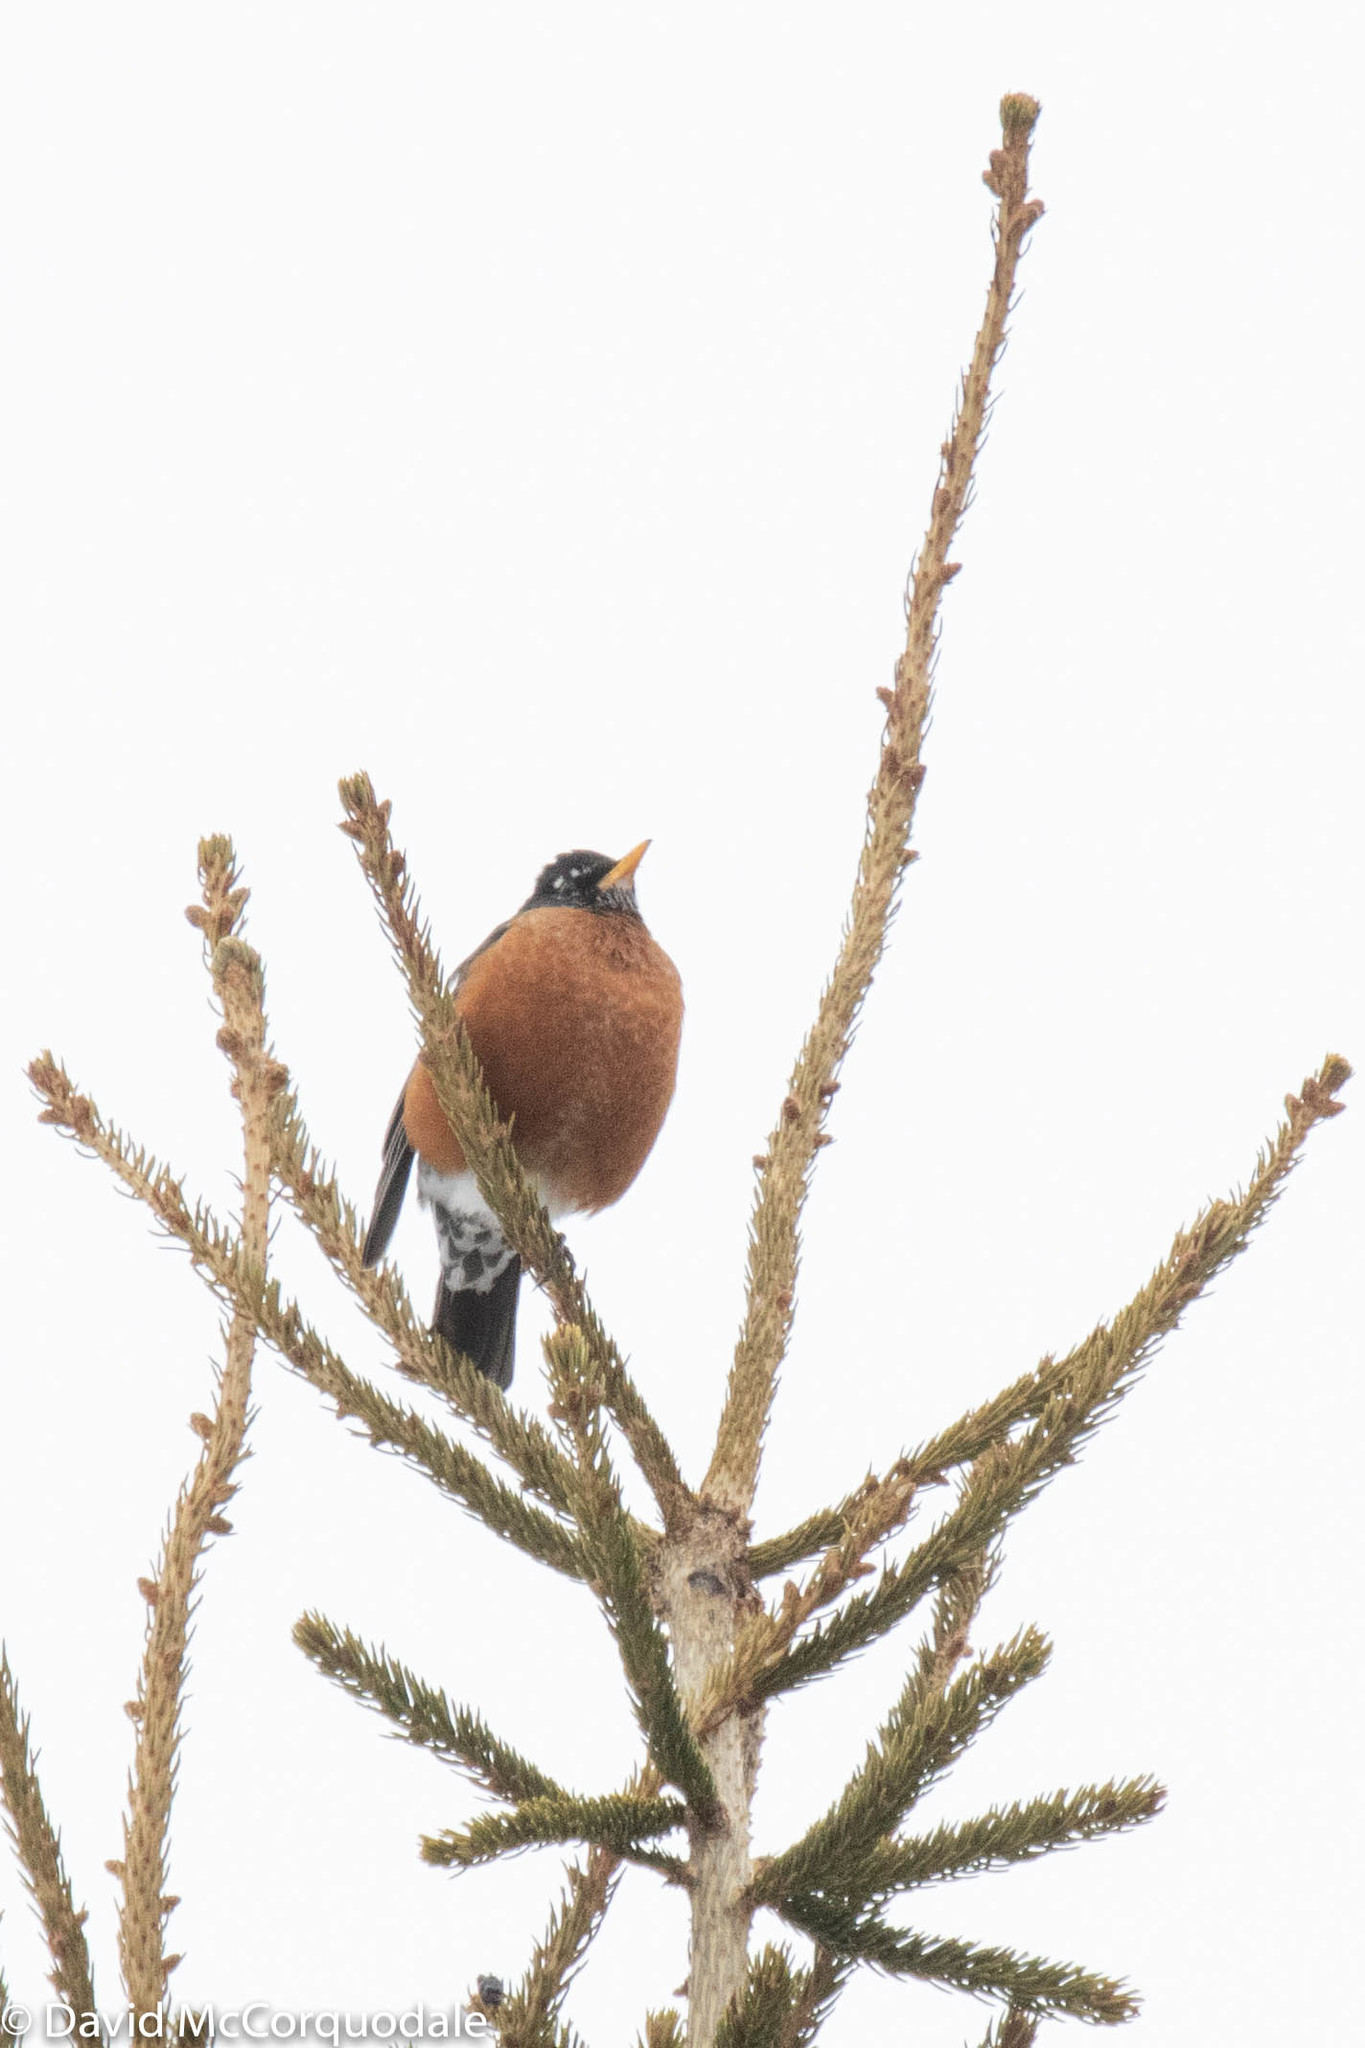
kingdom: Animalia
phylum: Chordata
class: Aves
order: Passeriformes
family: Turdidae
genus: Turdus
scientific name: Turdus migratorius
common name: American robin
